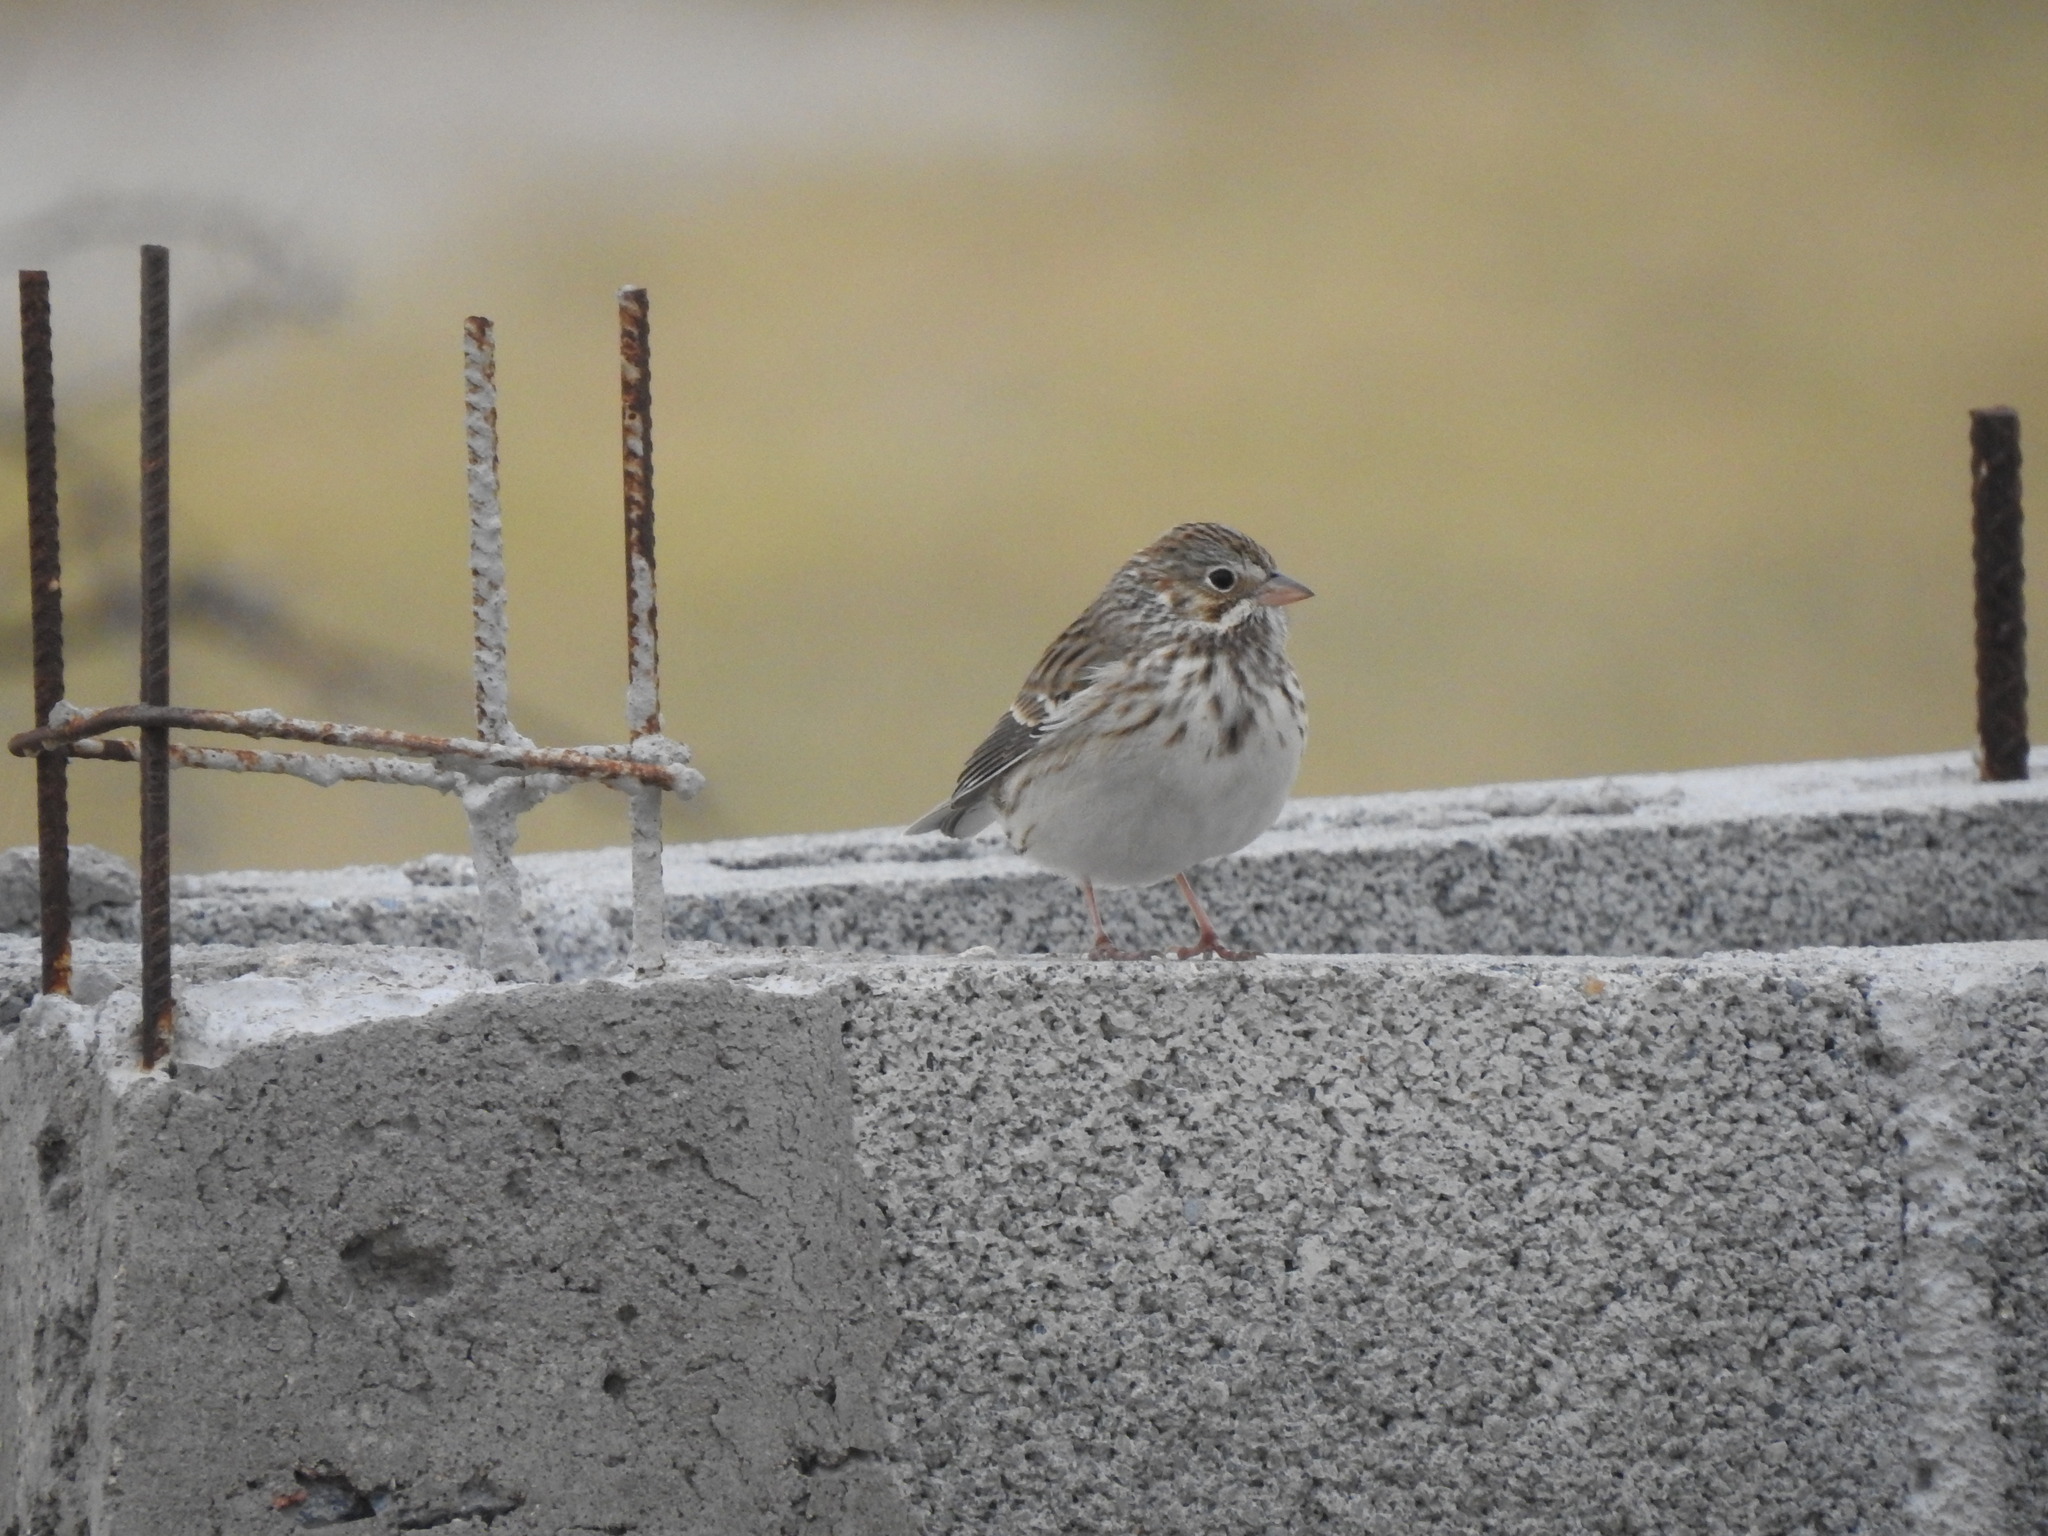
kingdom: Animalia
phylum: Chordata
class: Aves
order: Passeriformes
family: Passerellidae
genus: Pooecetes
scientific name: Pooecetes gramineus
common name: Vesper sparrow
